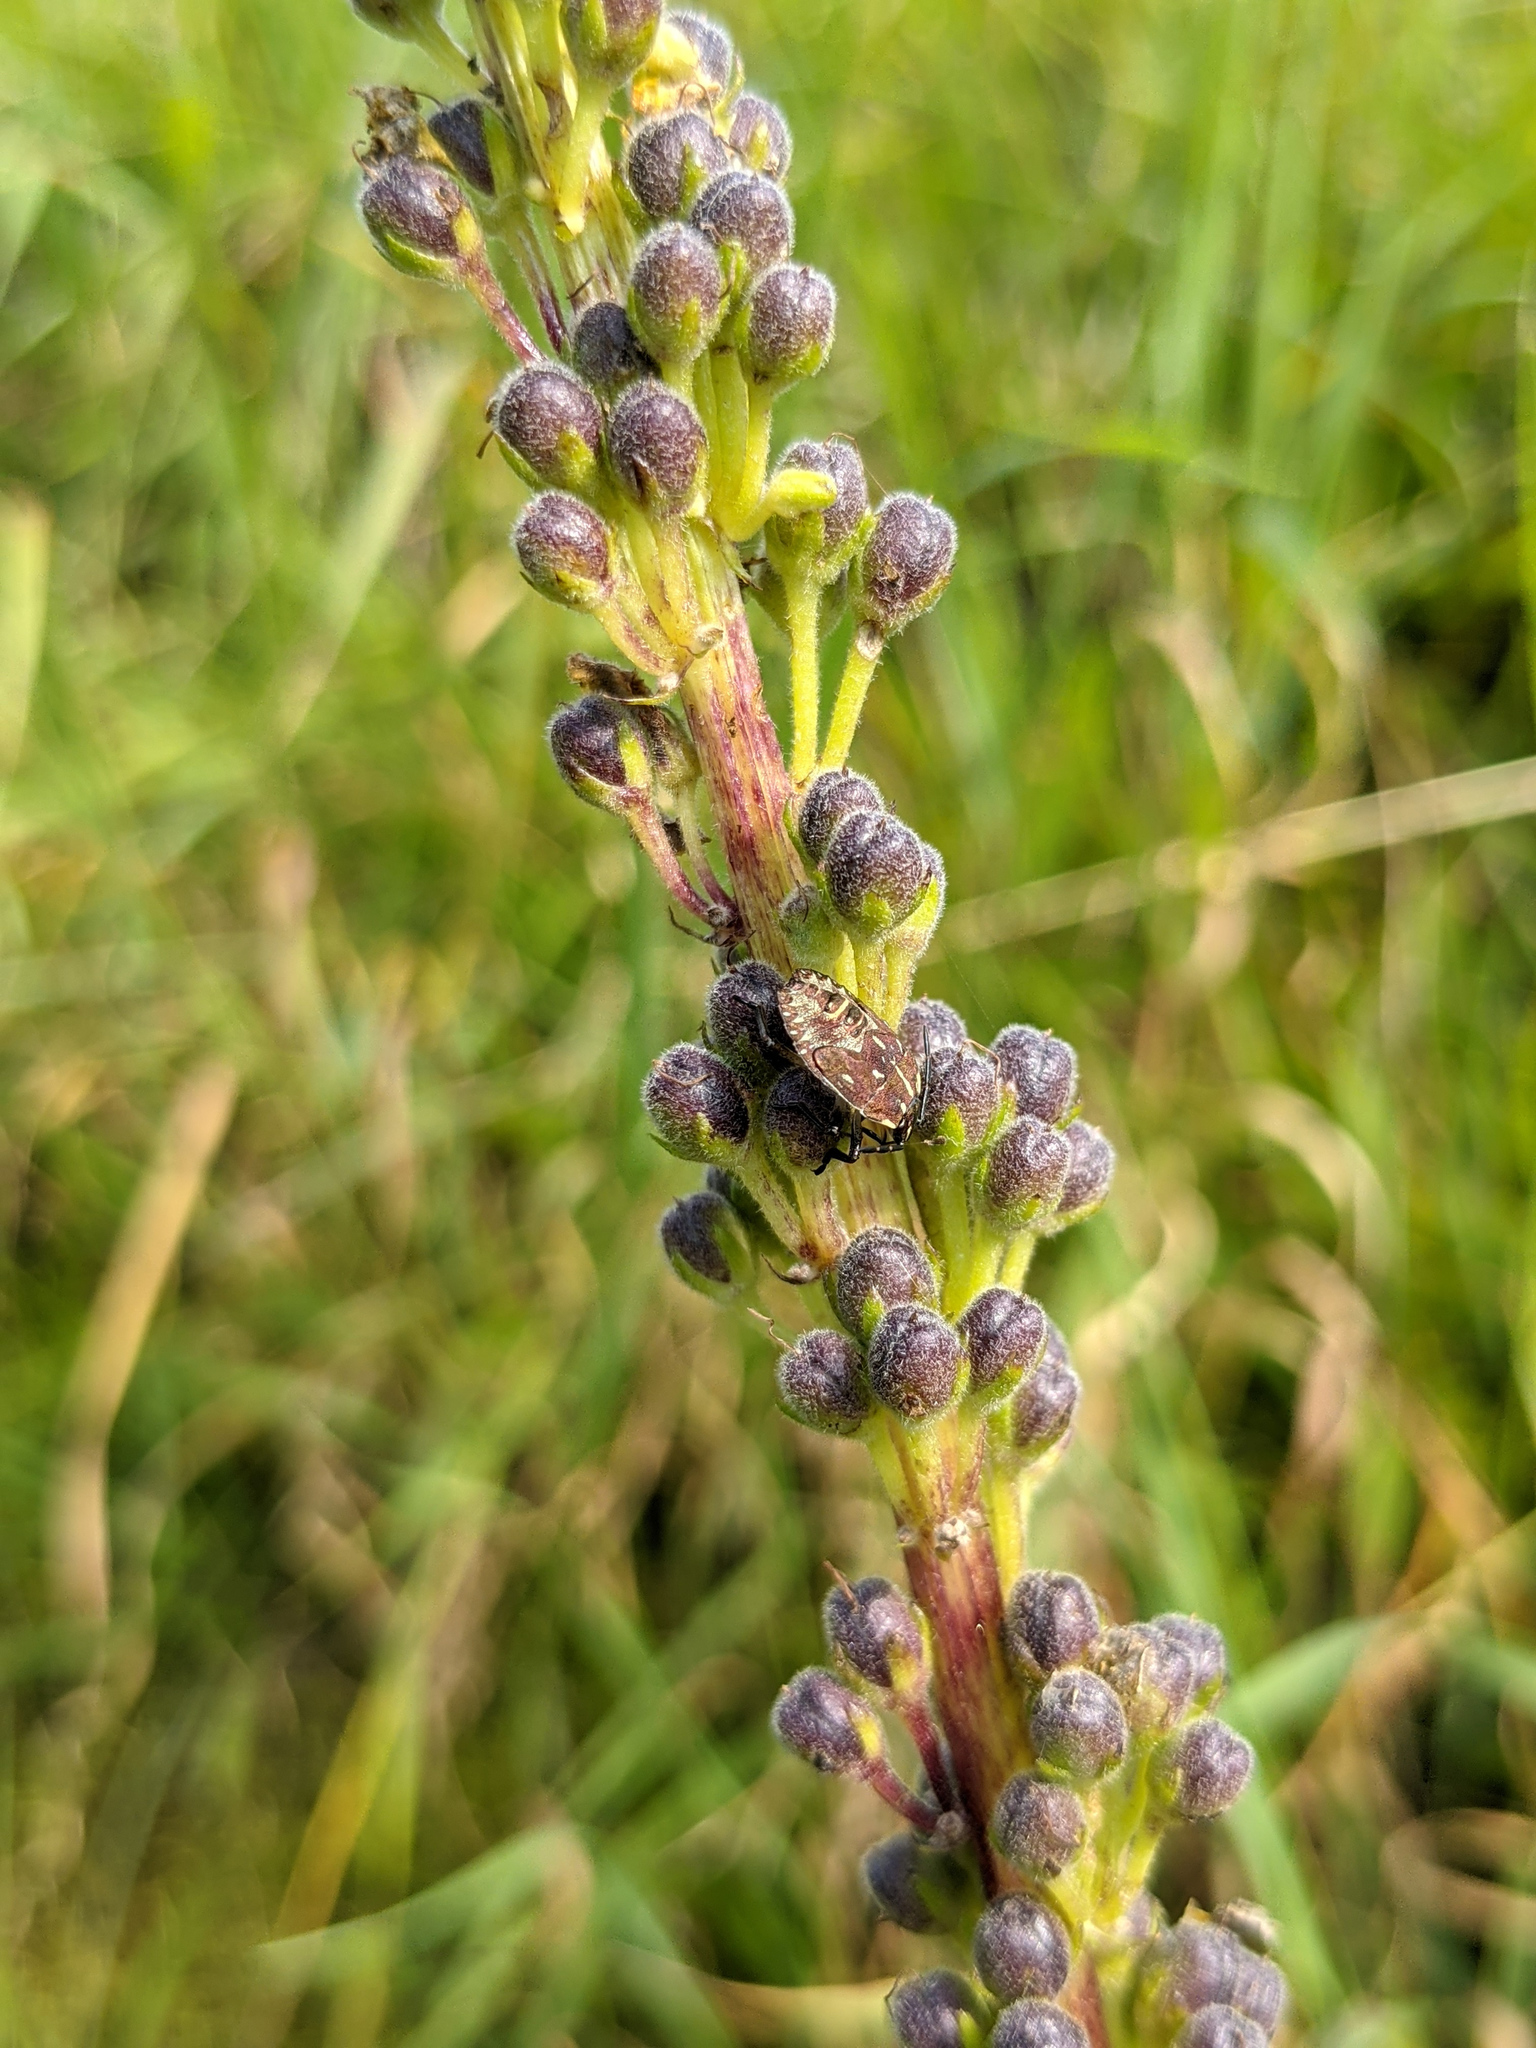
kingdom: Animalia
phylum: Arthropoda
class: Insecta
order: Hemiptera
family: Pentatomidae
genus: Carpocoris
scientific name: Carpocoris purpureipennis
